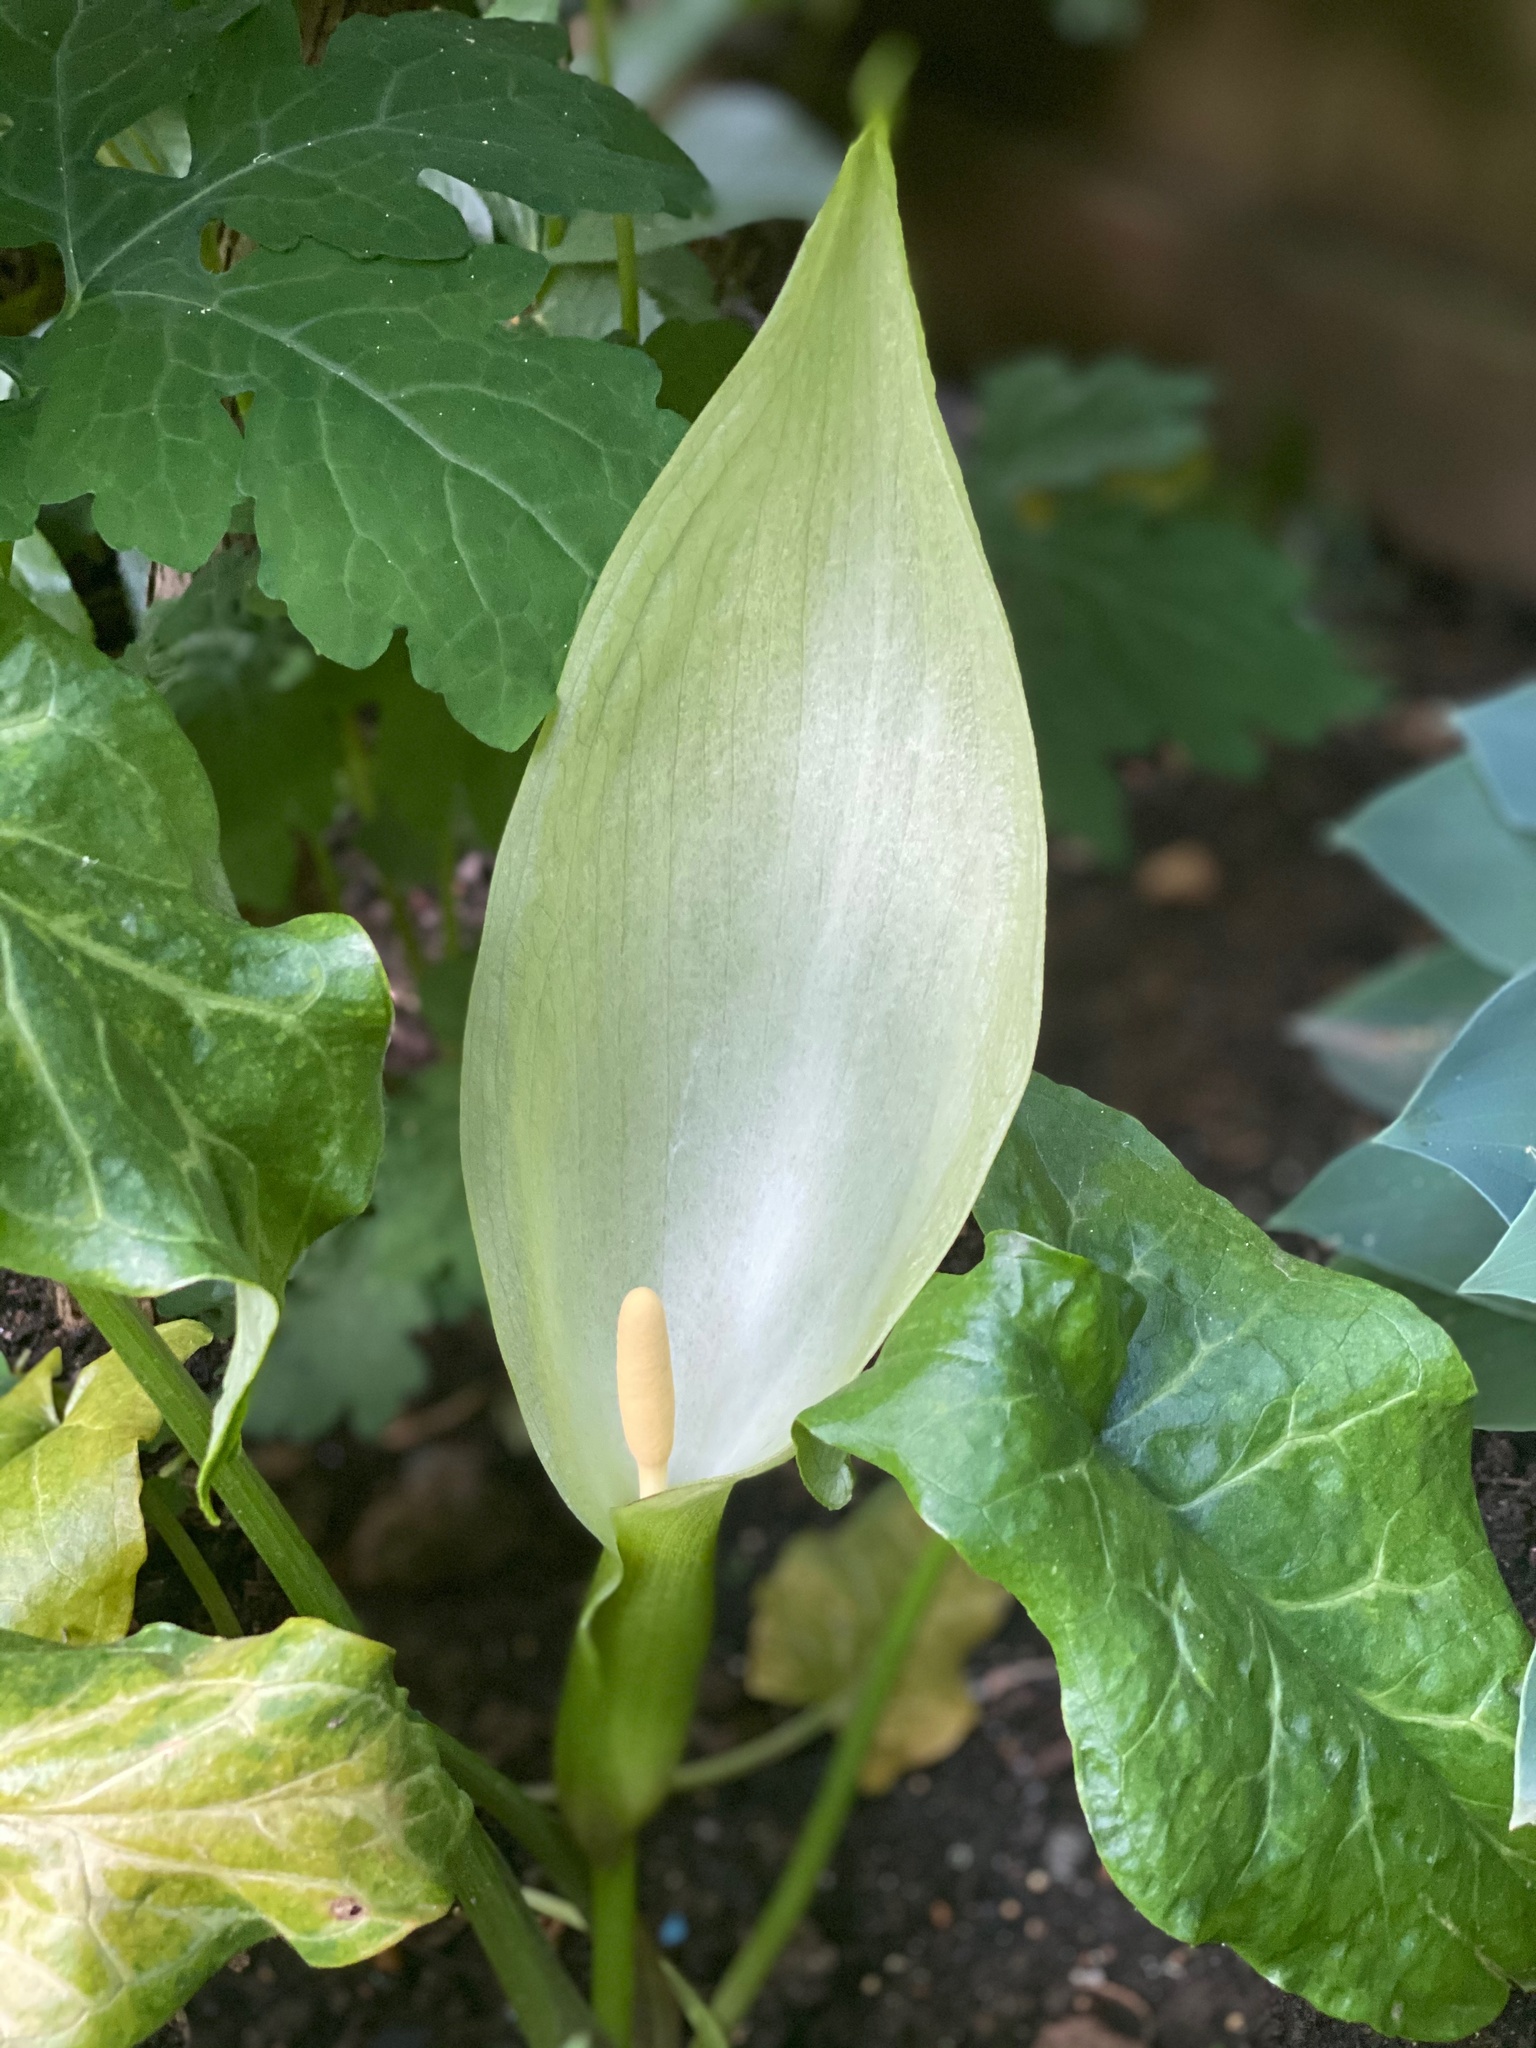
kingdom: Plantae
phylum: Tracheophyta
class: Liliopsida
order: Alismatales
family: Araceae
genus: Arum
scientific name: Arum italicum
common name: Italian lords-and-ladies
